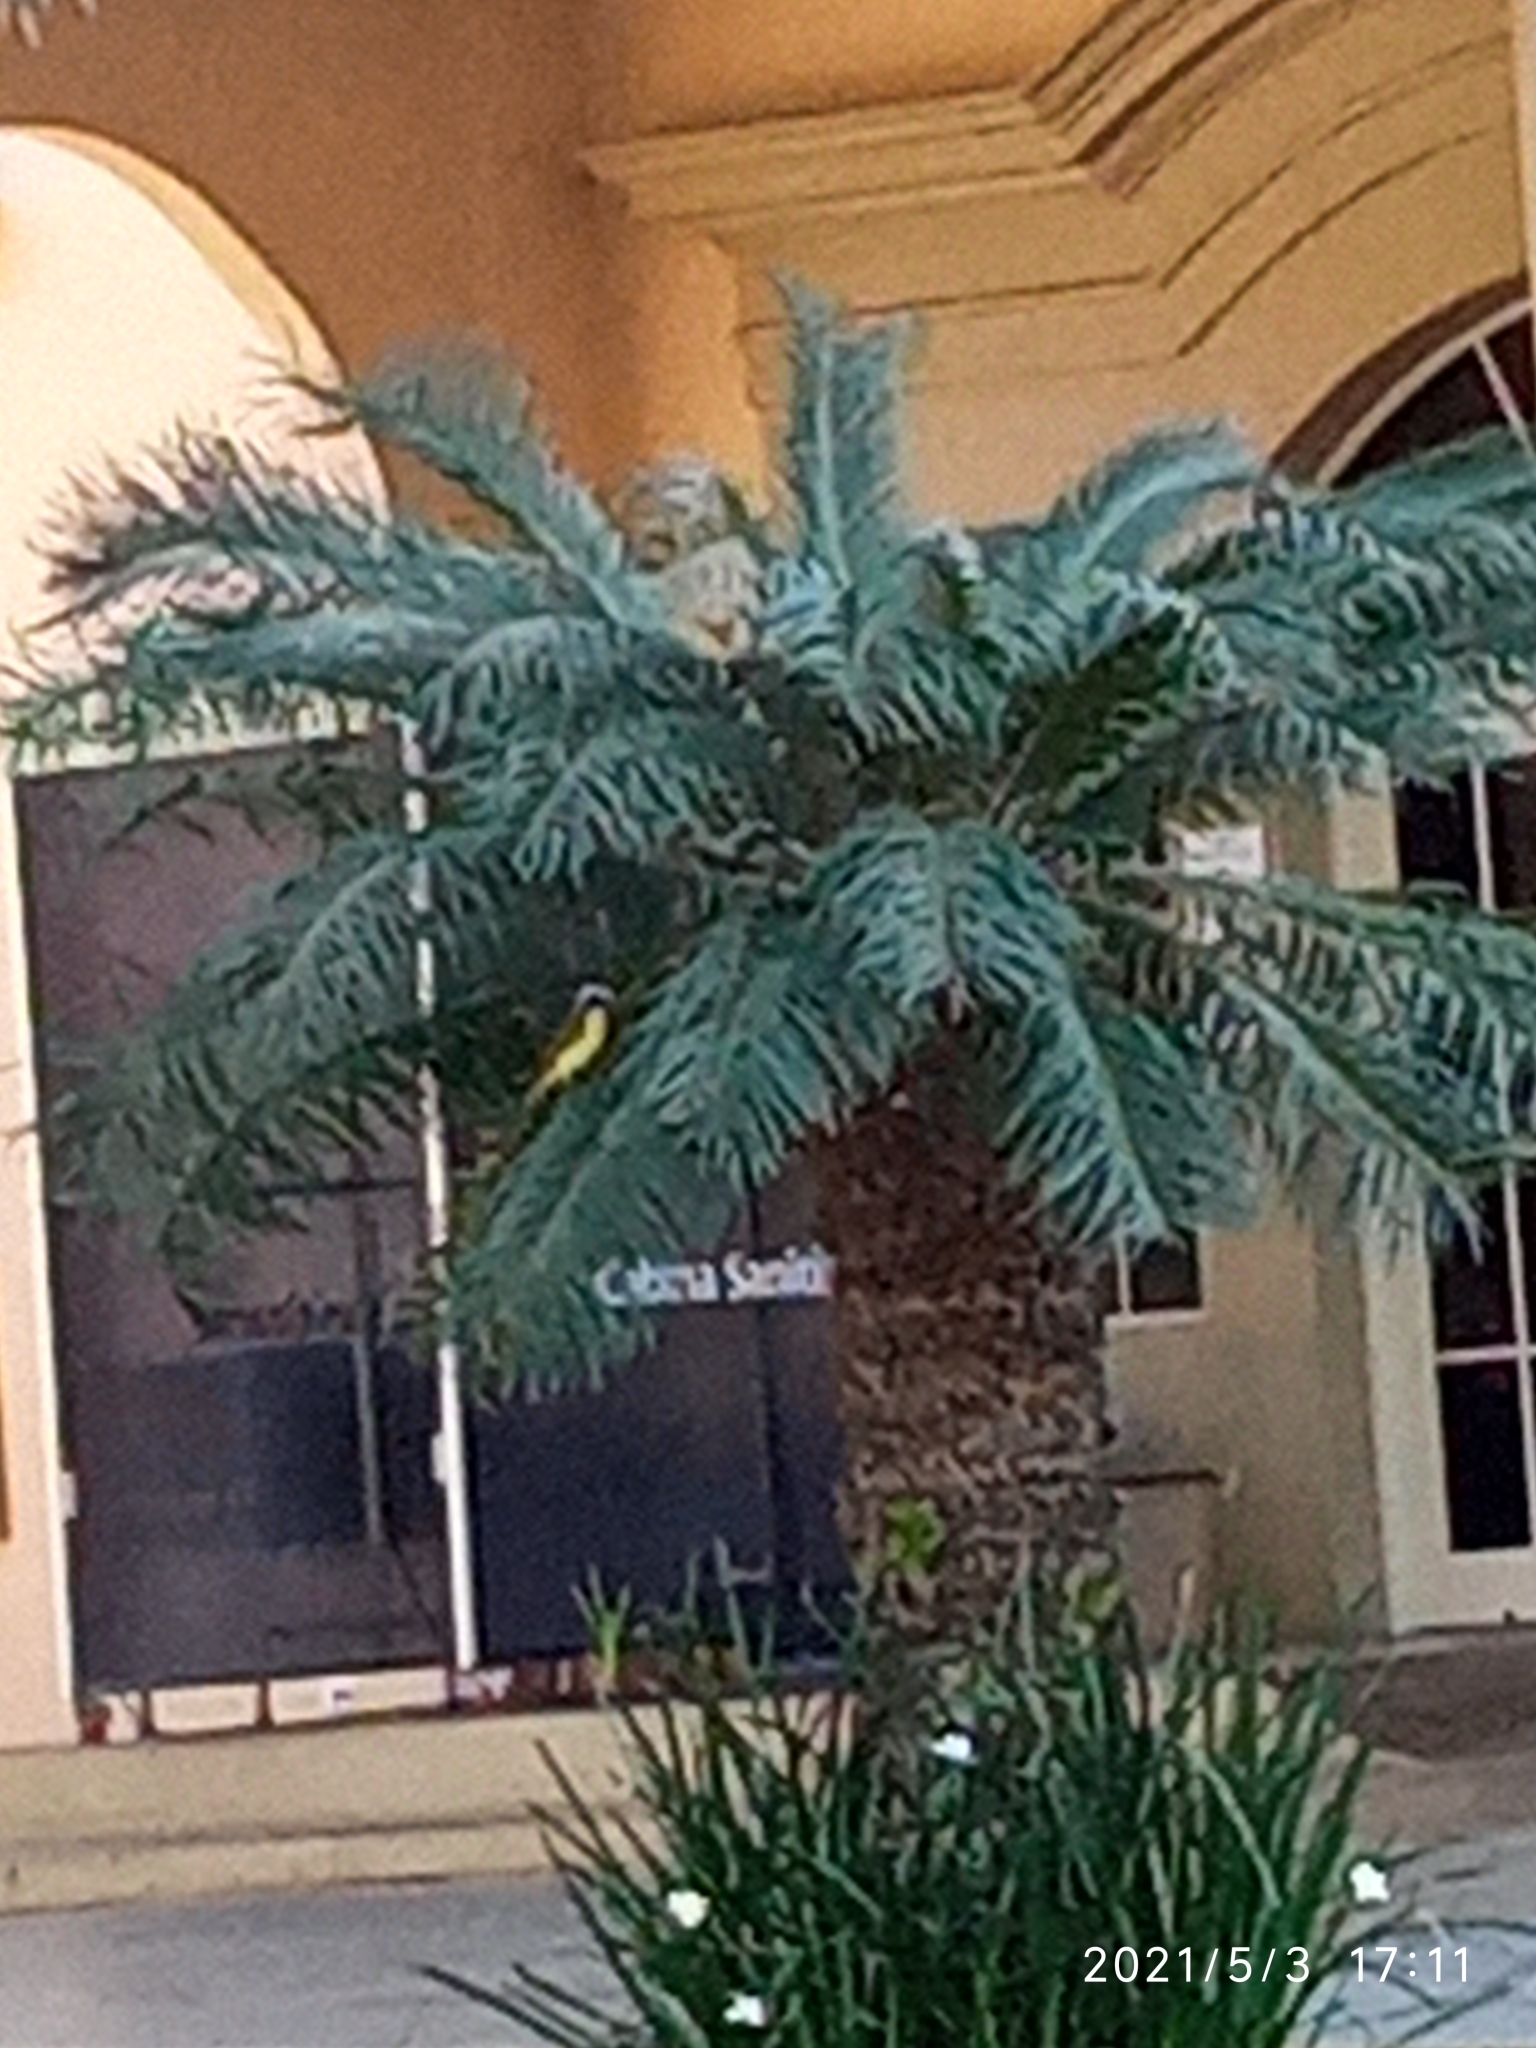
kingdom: Animalia
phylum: Chordata
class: Aves
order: Passeriformes
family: Tyrannidae
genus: Pitangus
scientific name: Pitangus sulphuratus
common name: Great kiskadee
